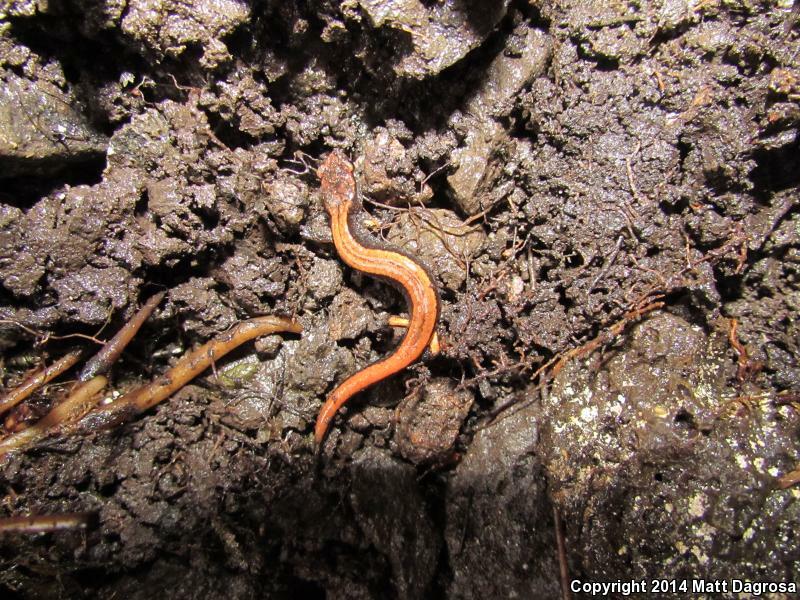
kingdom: Animalia
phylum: Chordata
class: Amphibia
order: Caudata
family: Plethodontidae
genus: Plethodon
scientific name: Plethodon vehiculum
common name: Western red-backed salamander
